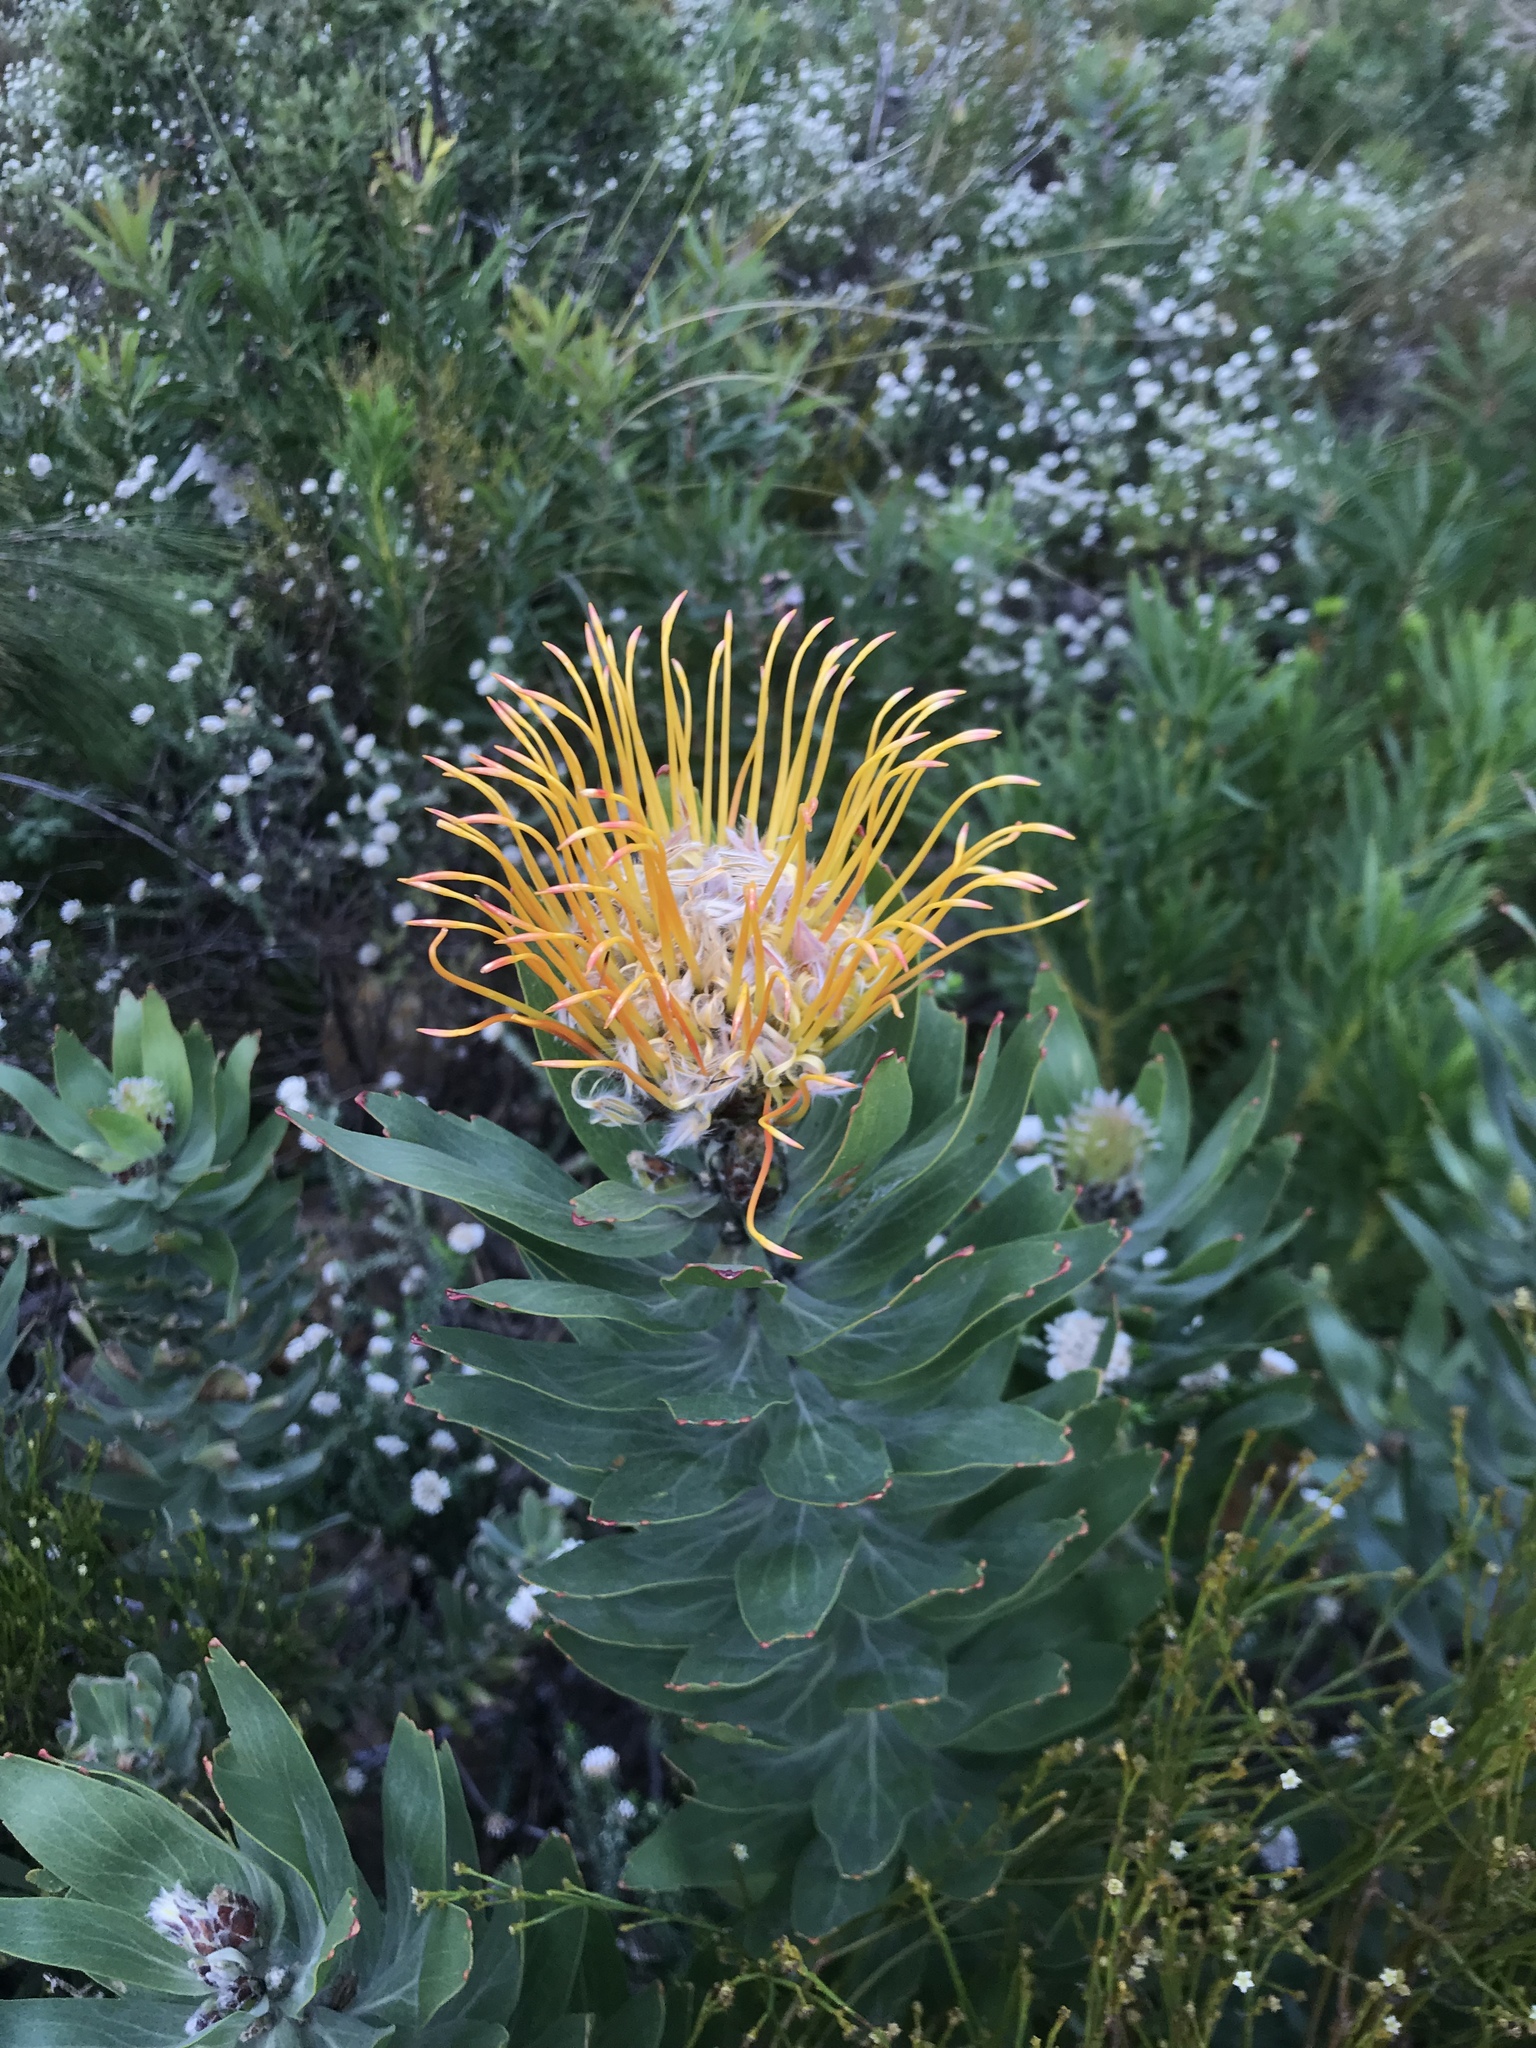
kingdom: Plantae
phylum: Tracheophyta
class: Magnoliopsida
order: Proteales
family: Proteaceae
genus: Leucospermum
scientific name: Leucospermum gueinzii
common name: Kloof fountain pincushion
